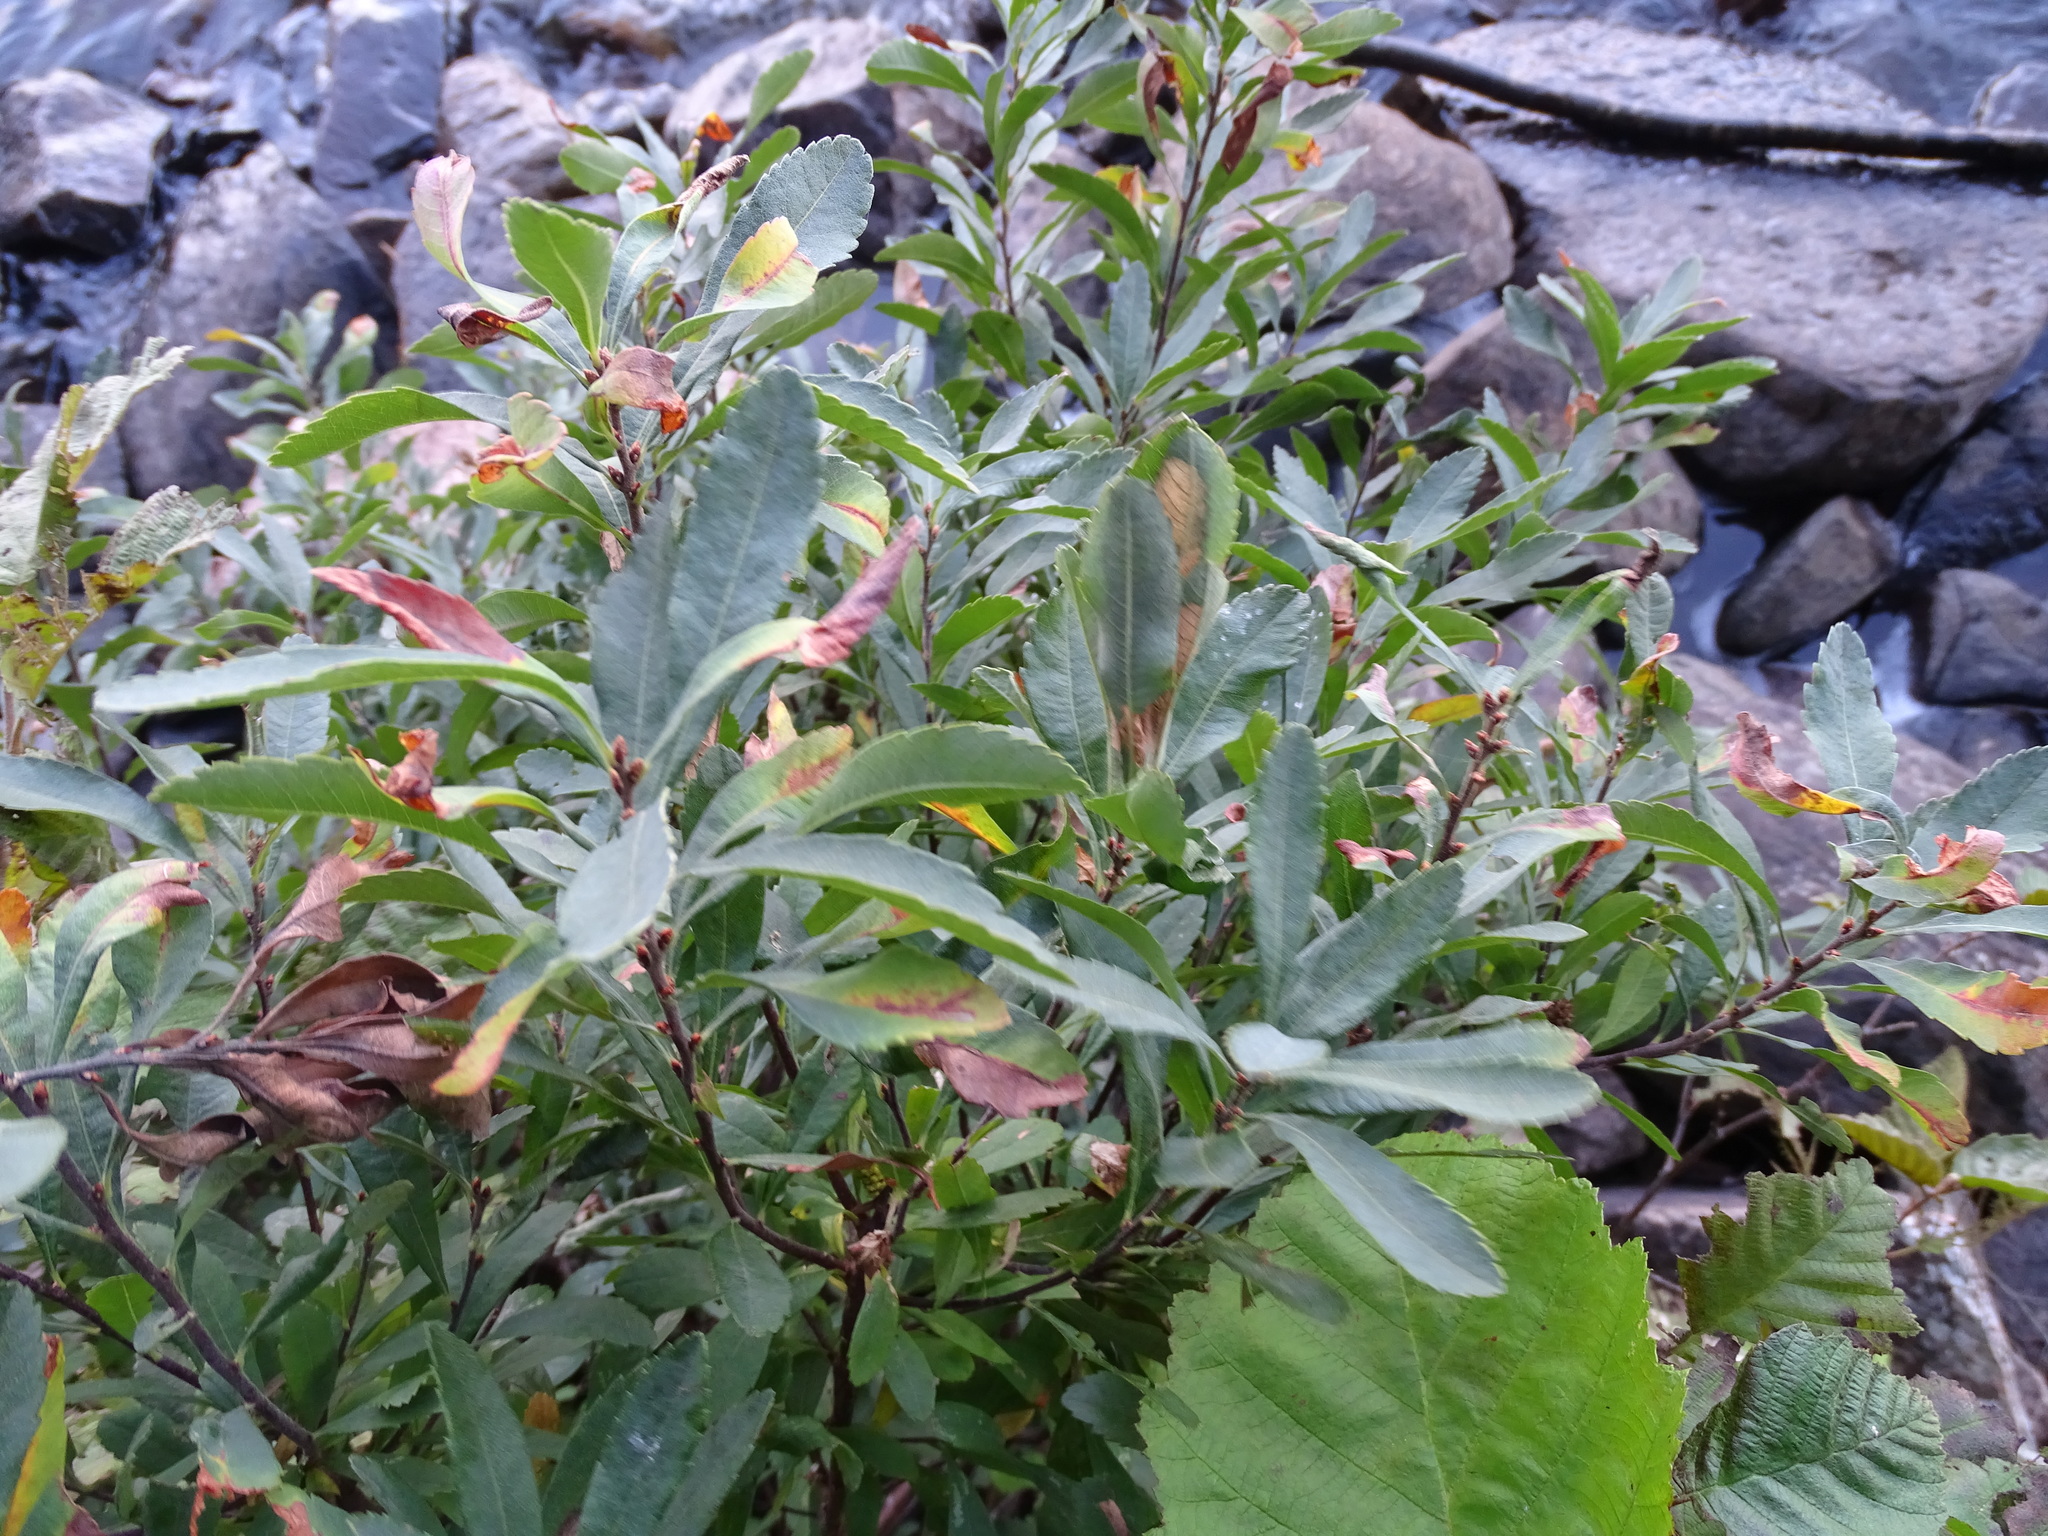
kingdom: Plantae
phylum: Tracheophyta
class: Magnoliopsida
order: Fagales
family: Myricaceae
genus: Myrica
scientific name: Myrica gale
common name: Sweet gale
